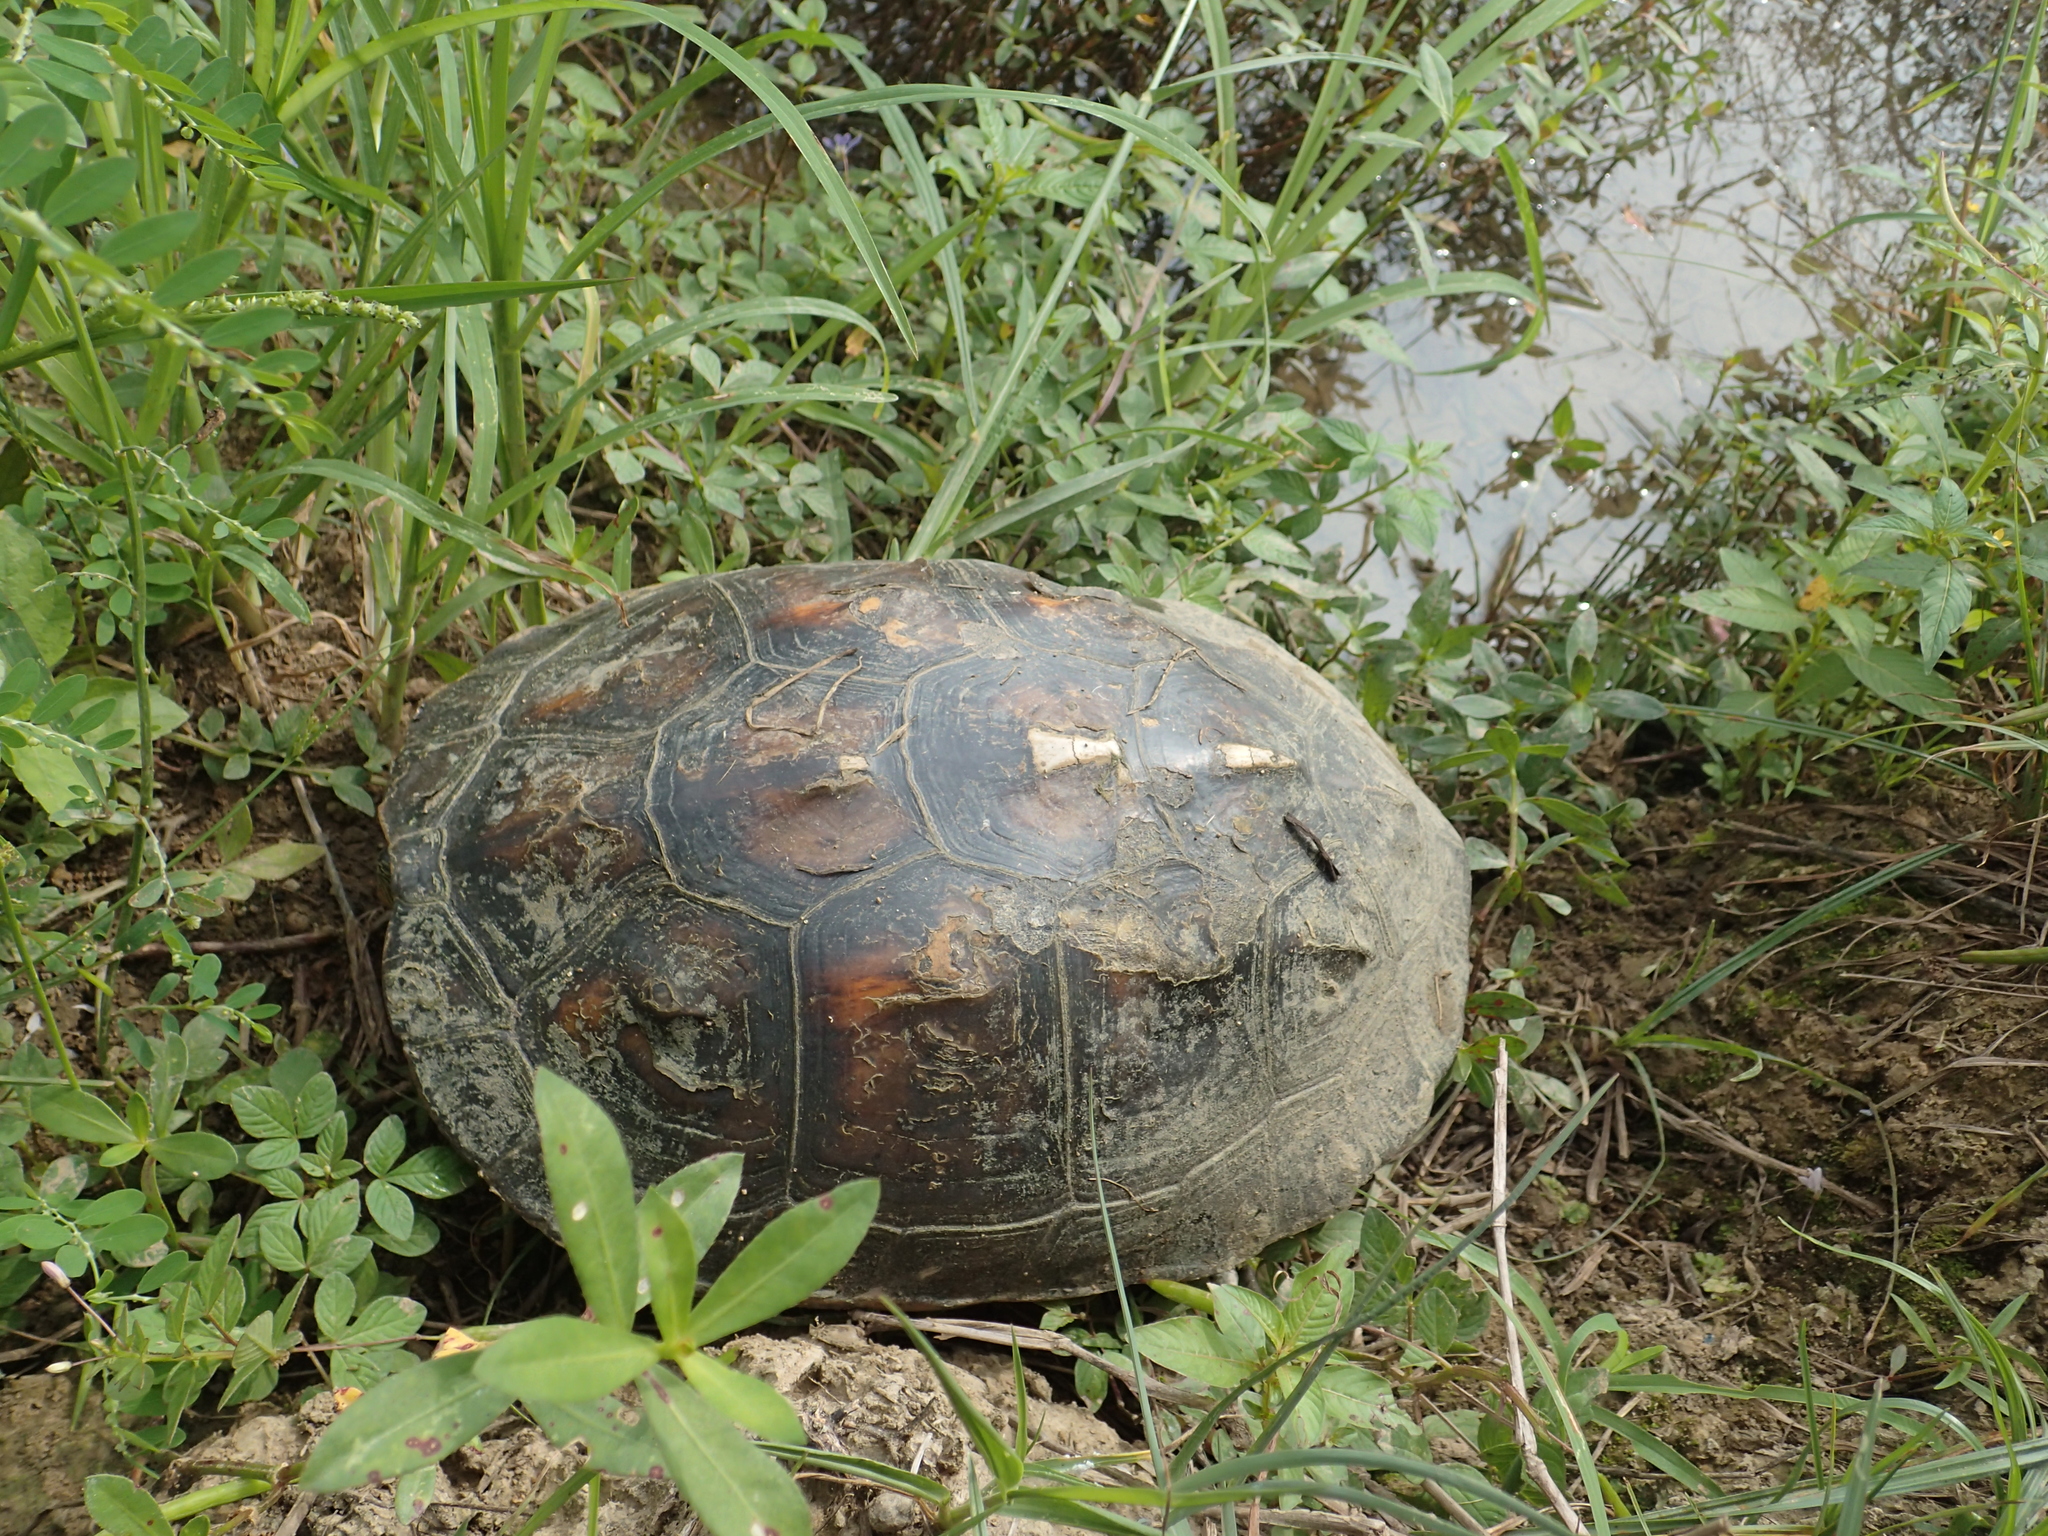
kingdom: Animalia
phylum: Chordata
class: Testudines
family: Geoemydidae
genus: Mauremys
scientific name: Mauremys sinensis
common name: Chinese stripe-necked turtle
